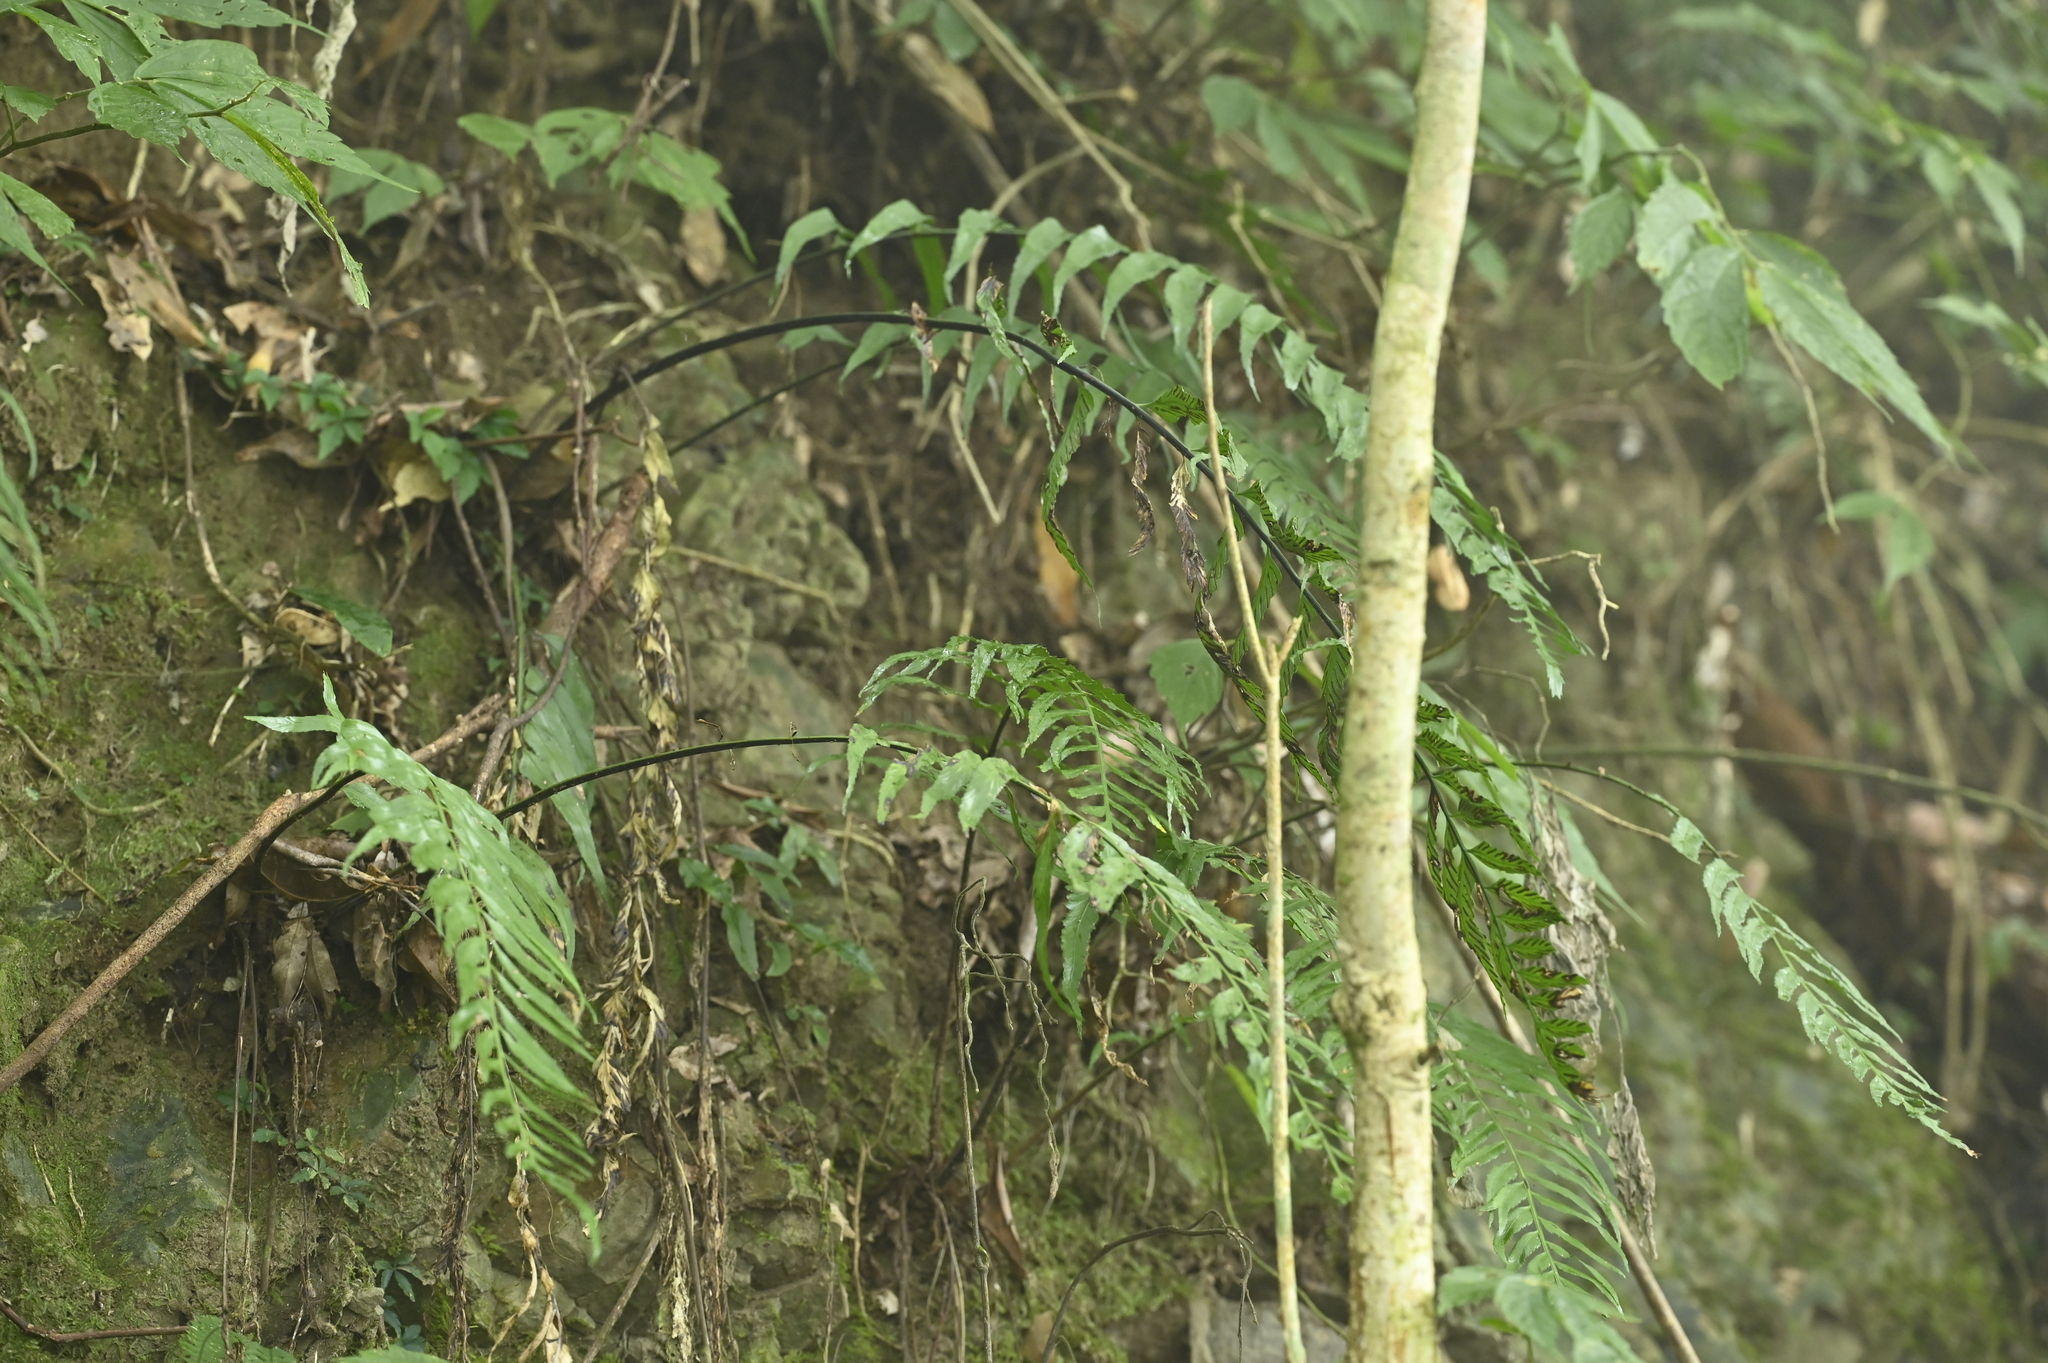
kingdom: Plantae
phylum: Tracheophyta
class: Polypodiopsida
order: Polypodiales
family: Aspleniaceae
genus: Asplenium
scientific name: Asplenium wrightii
